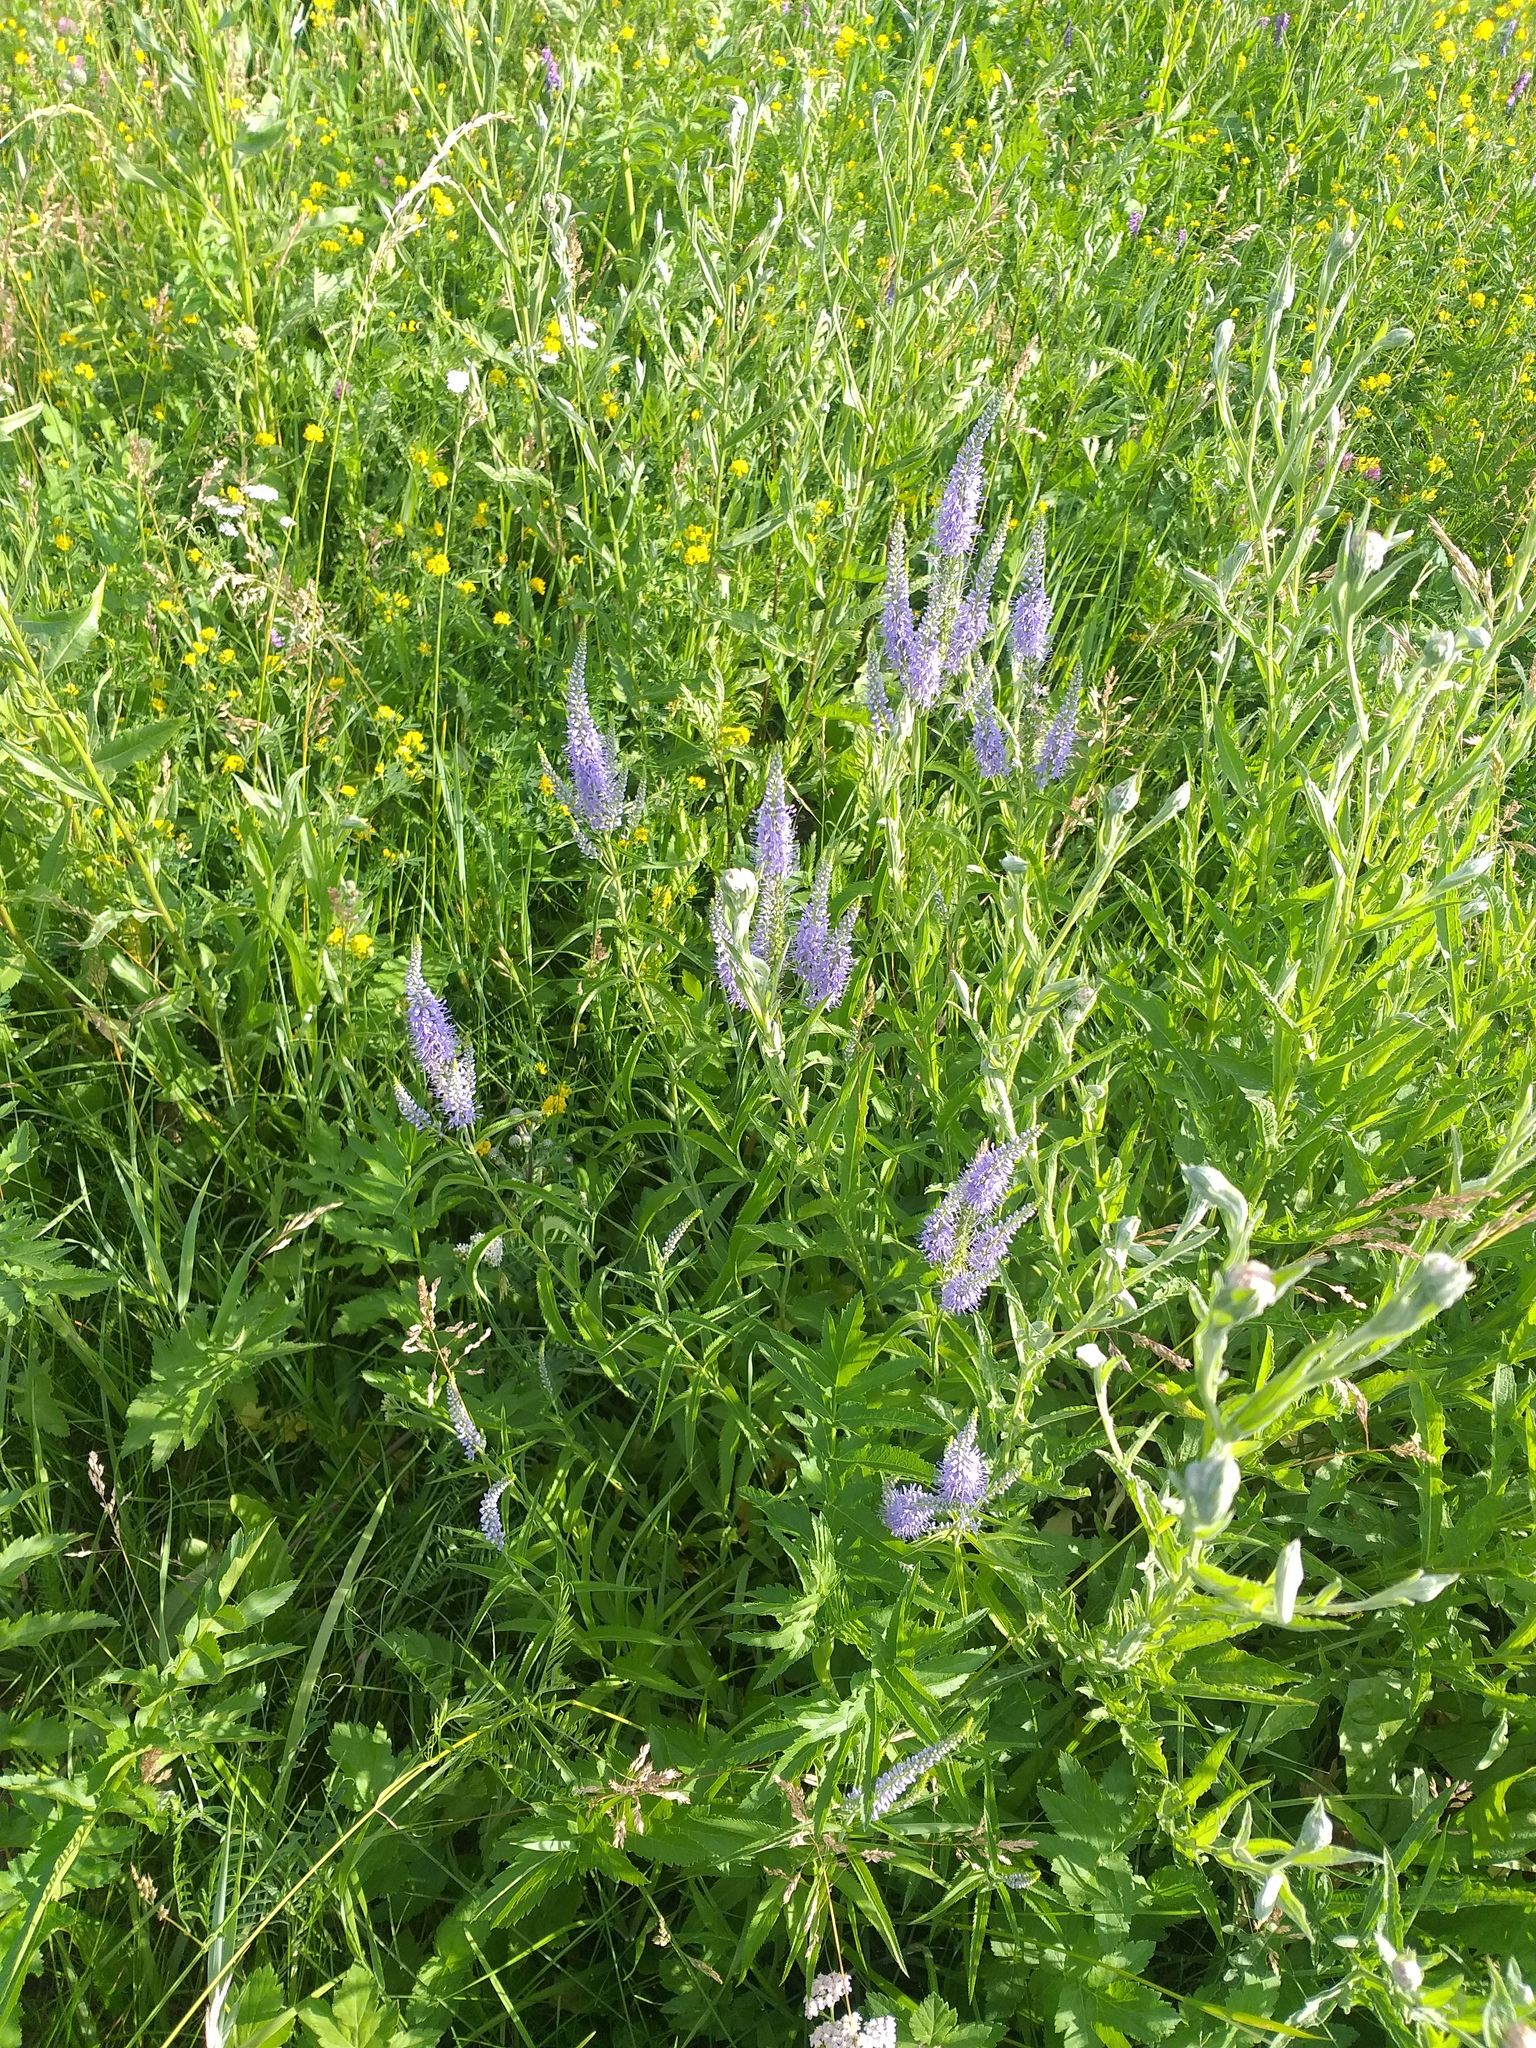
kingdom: Plantae
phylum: Tracheophyta
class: Magnoliopsida
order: Lamiales
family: Plantaginaceae
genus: Veronica
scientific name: Veronica longifolia
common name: Garden speedwell
